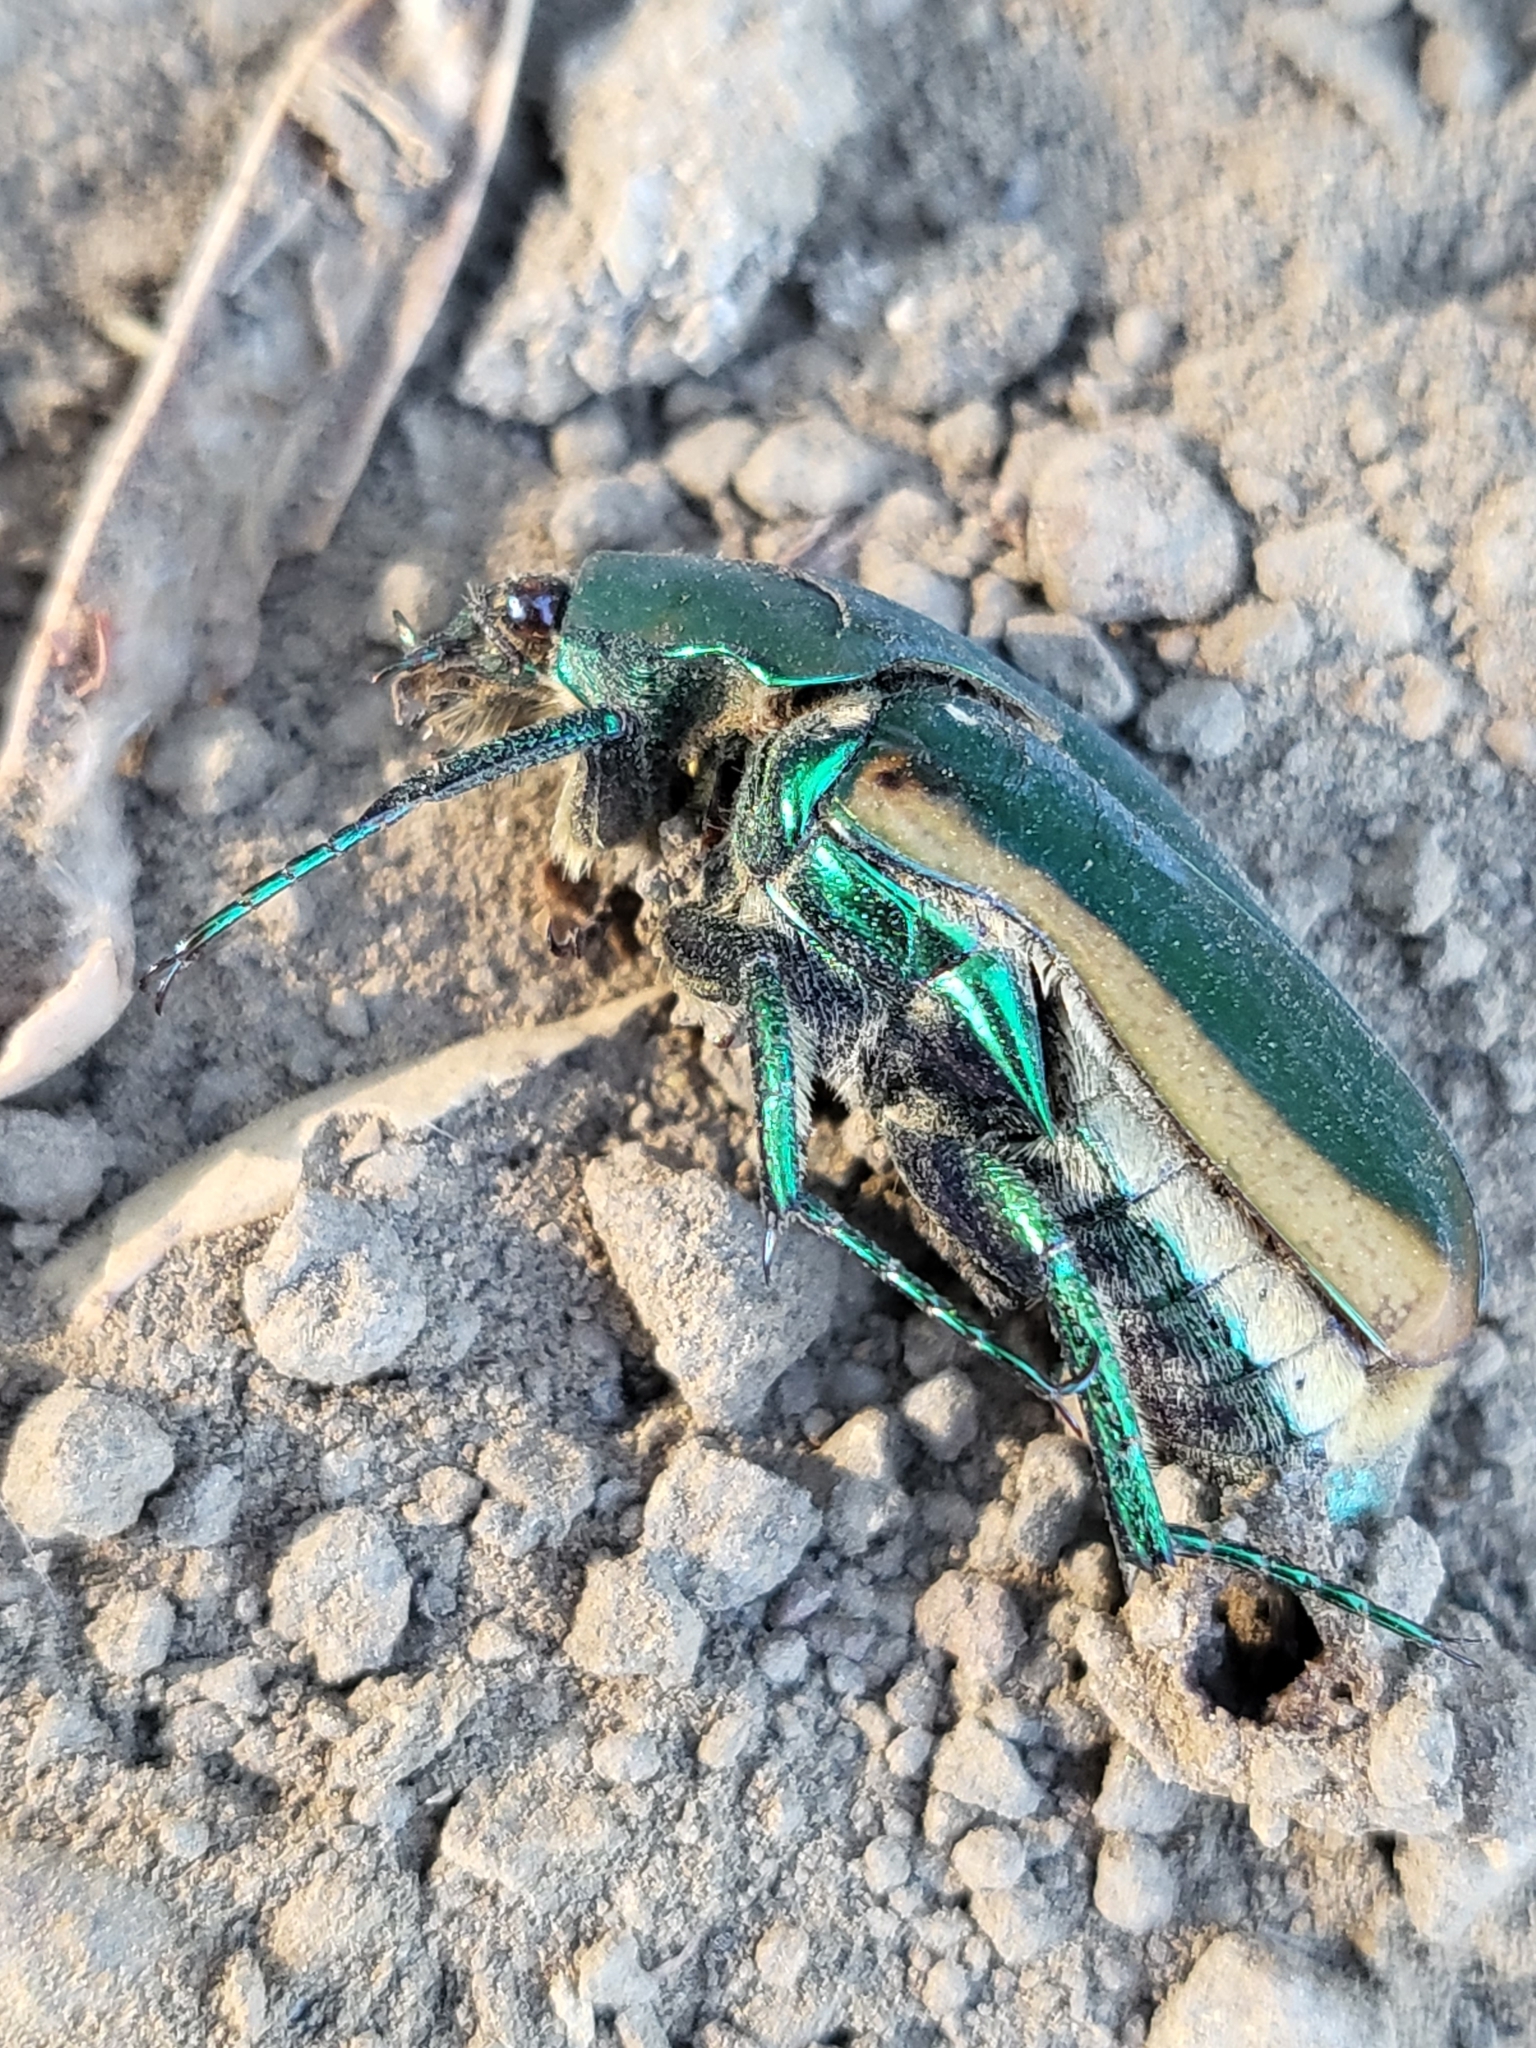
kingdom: Animalia
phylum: Arthropoda
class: Insecta
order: Coleoptera
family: Scarabaeidae
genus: Cotinis
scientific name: Cotinis mutabilis
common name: Figeater beetle
